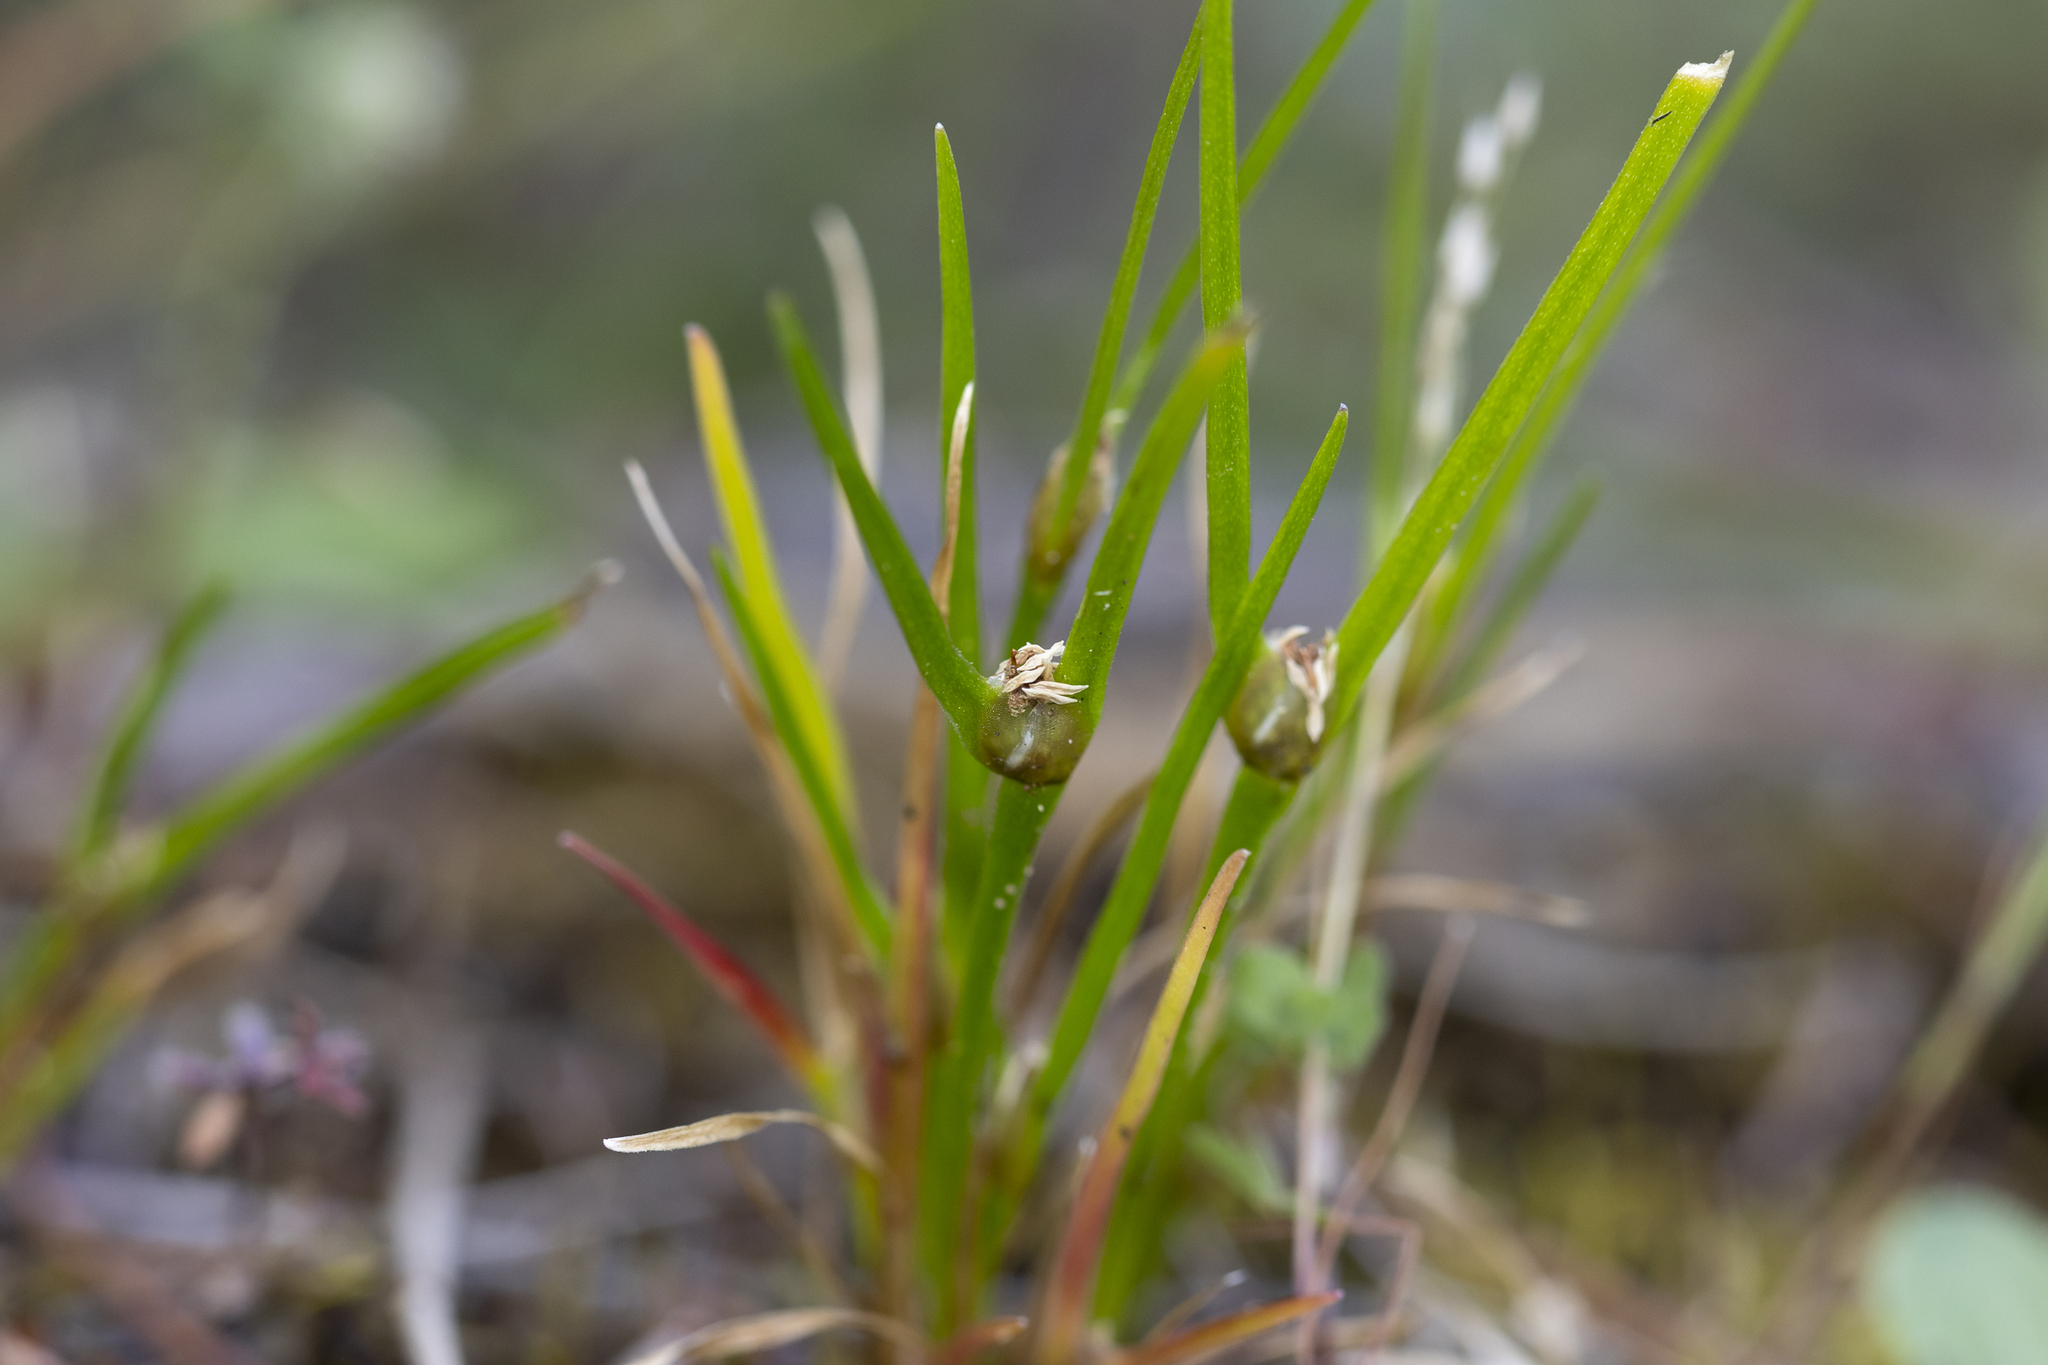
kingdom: Plantae
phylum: Tracheophyta
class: Liliopsida
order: Poales
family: Restionaceae
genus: Centrolepis
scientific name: Centrolepis aristata
